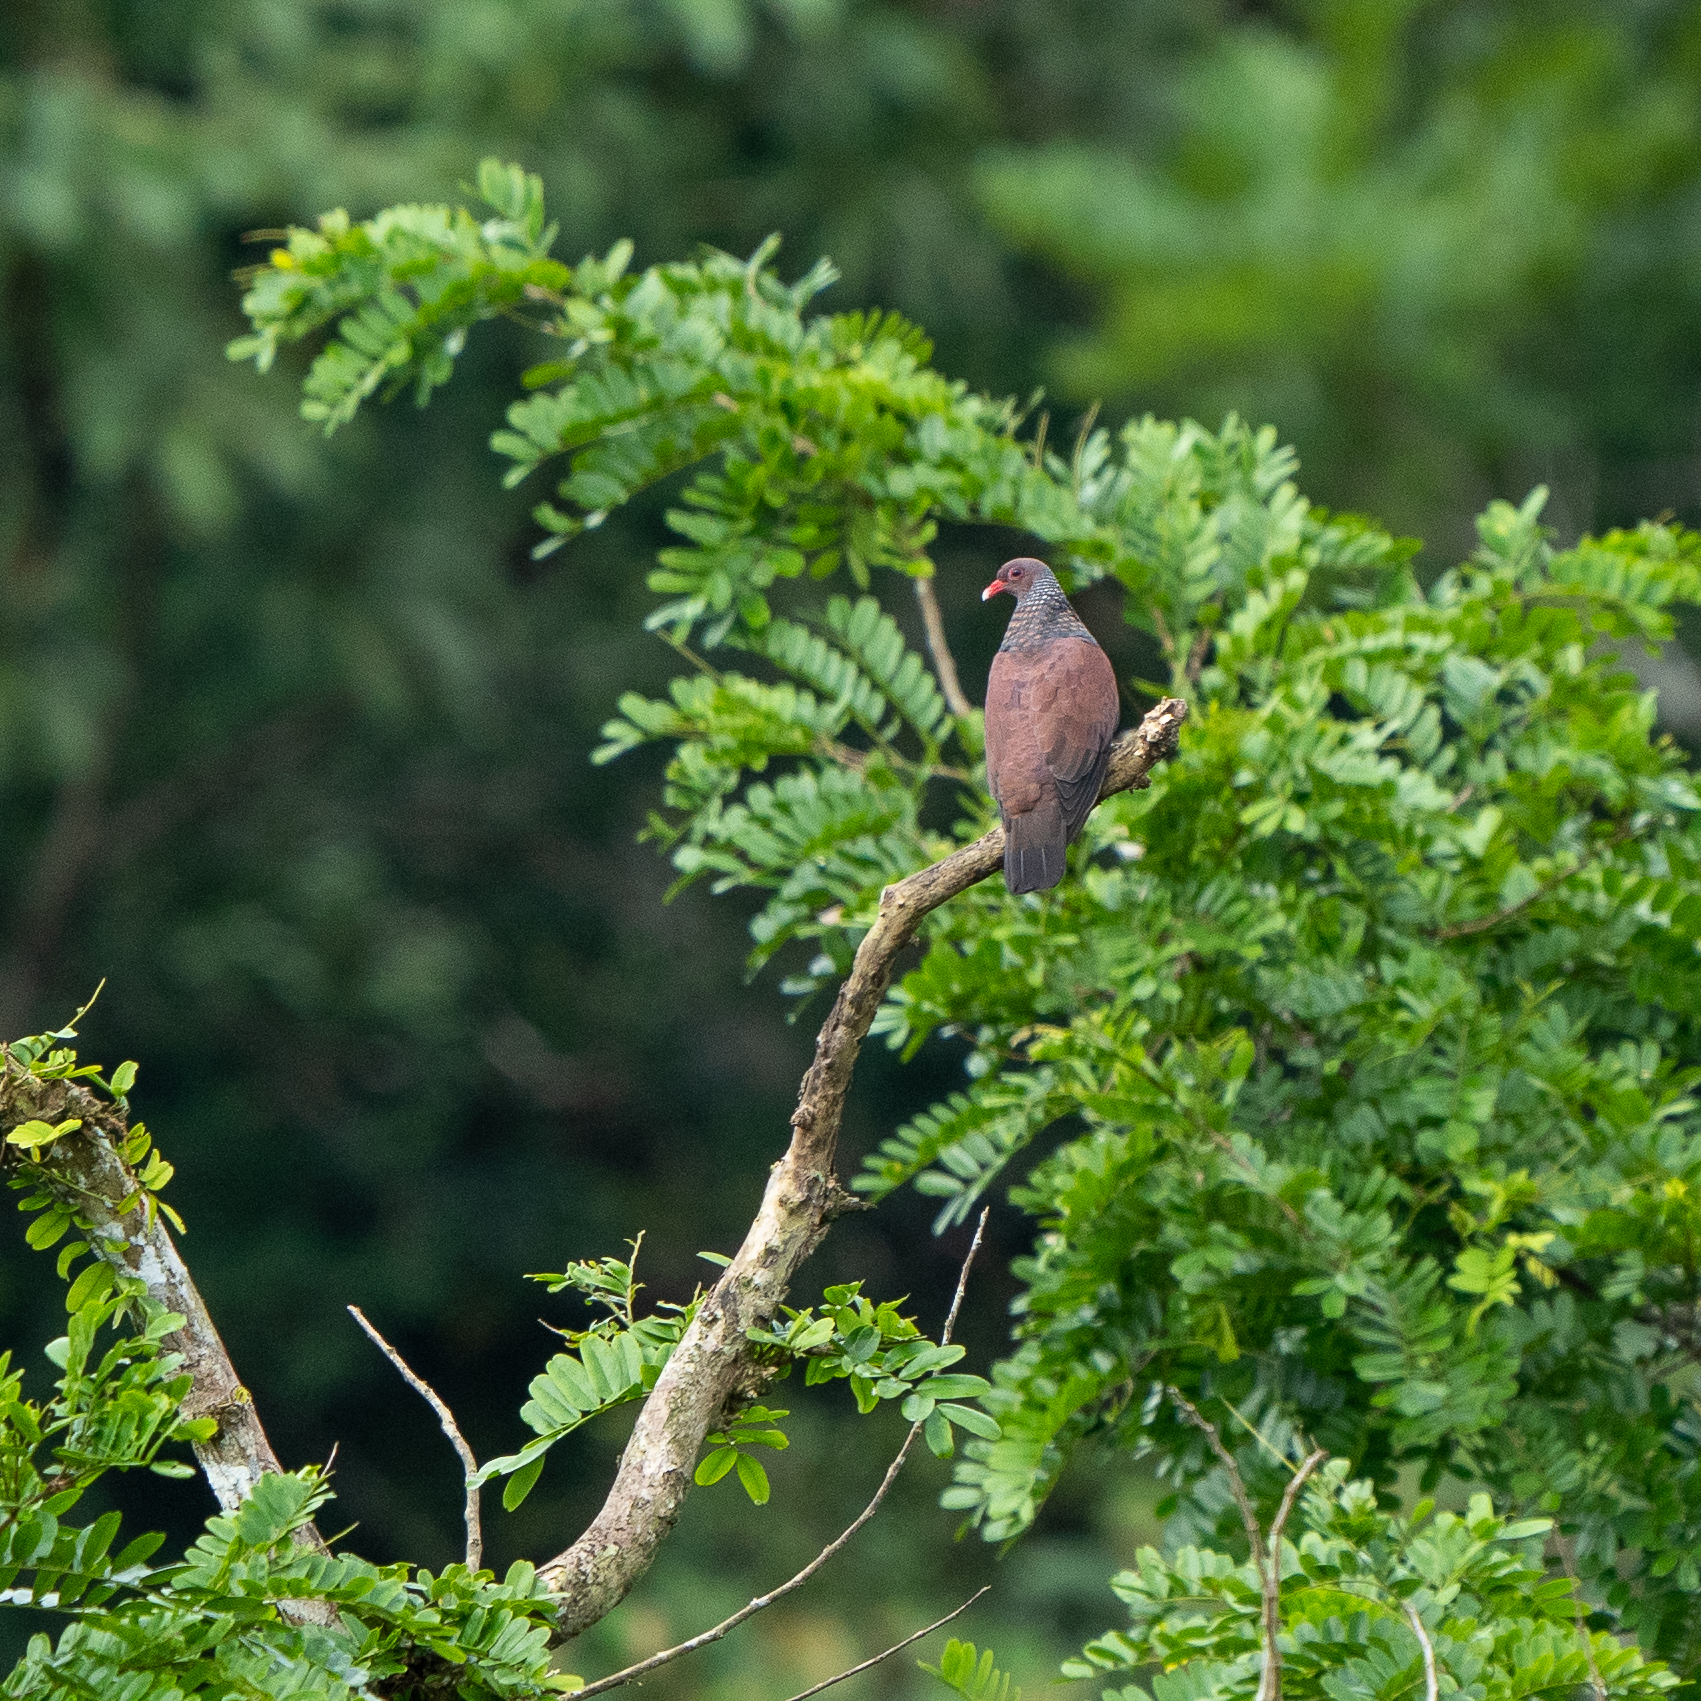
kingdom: Animalia
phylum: Chordata
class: Aves
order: Columbiformes
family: Columbidae
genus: Patagioenas
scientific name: Patagioenas speciosa
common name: Scaled pigeon
